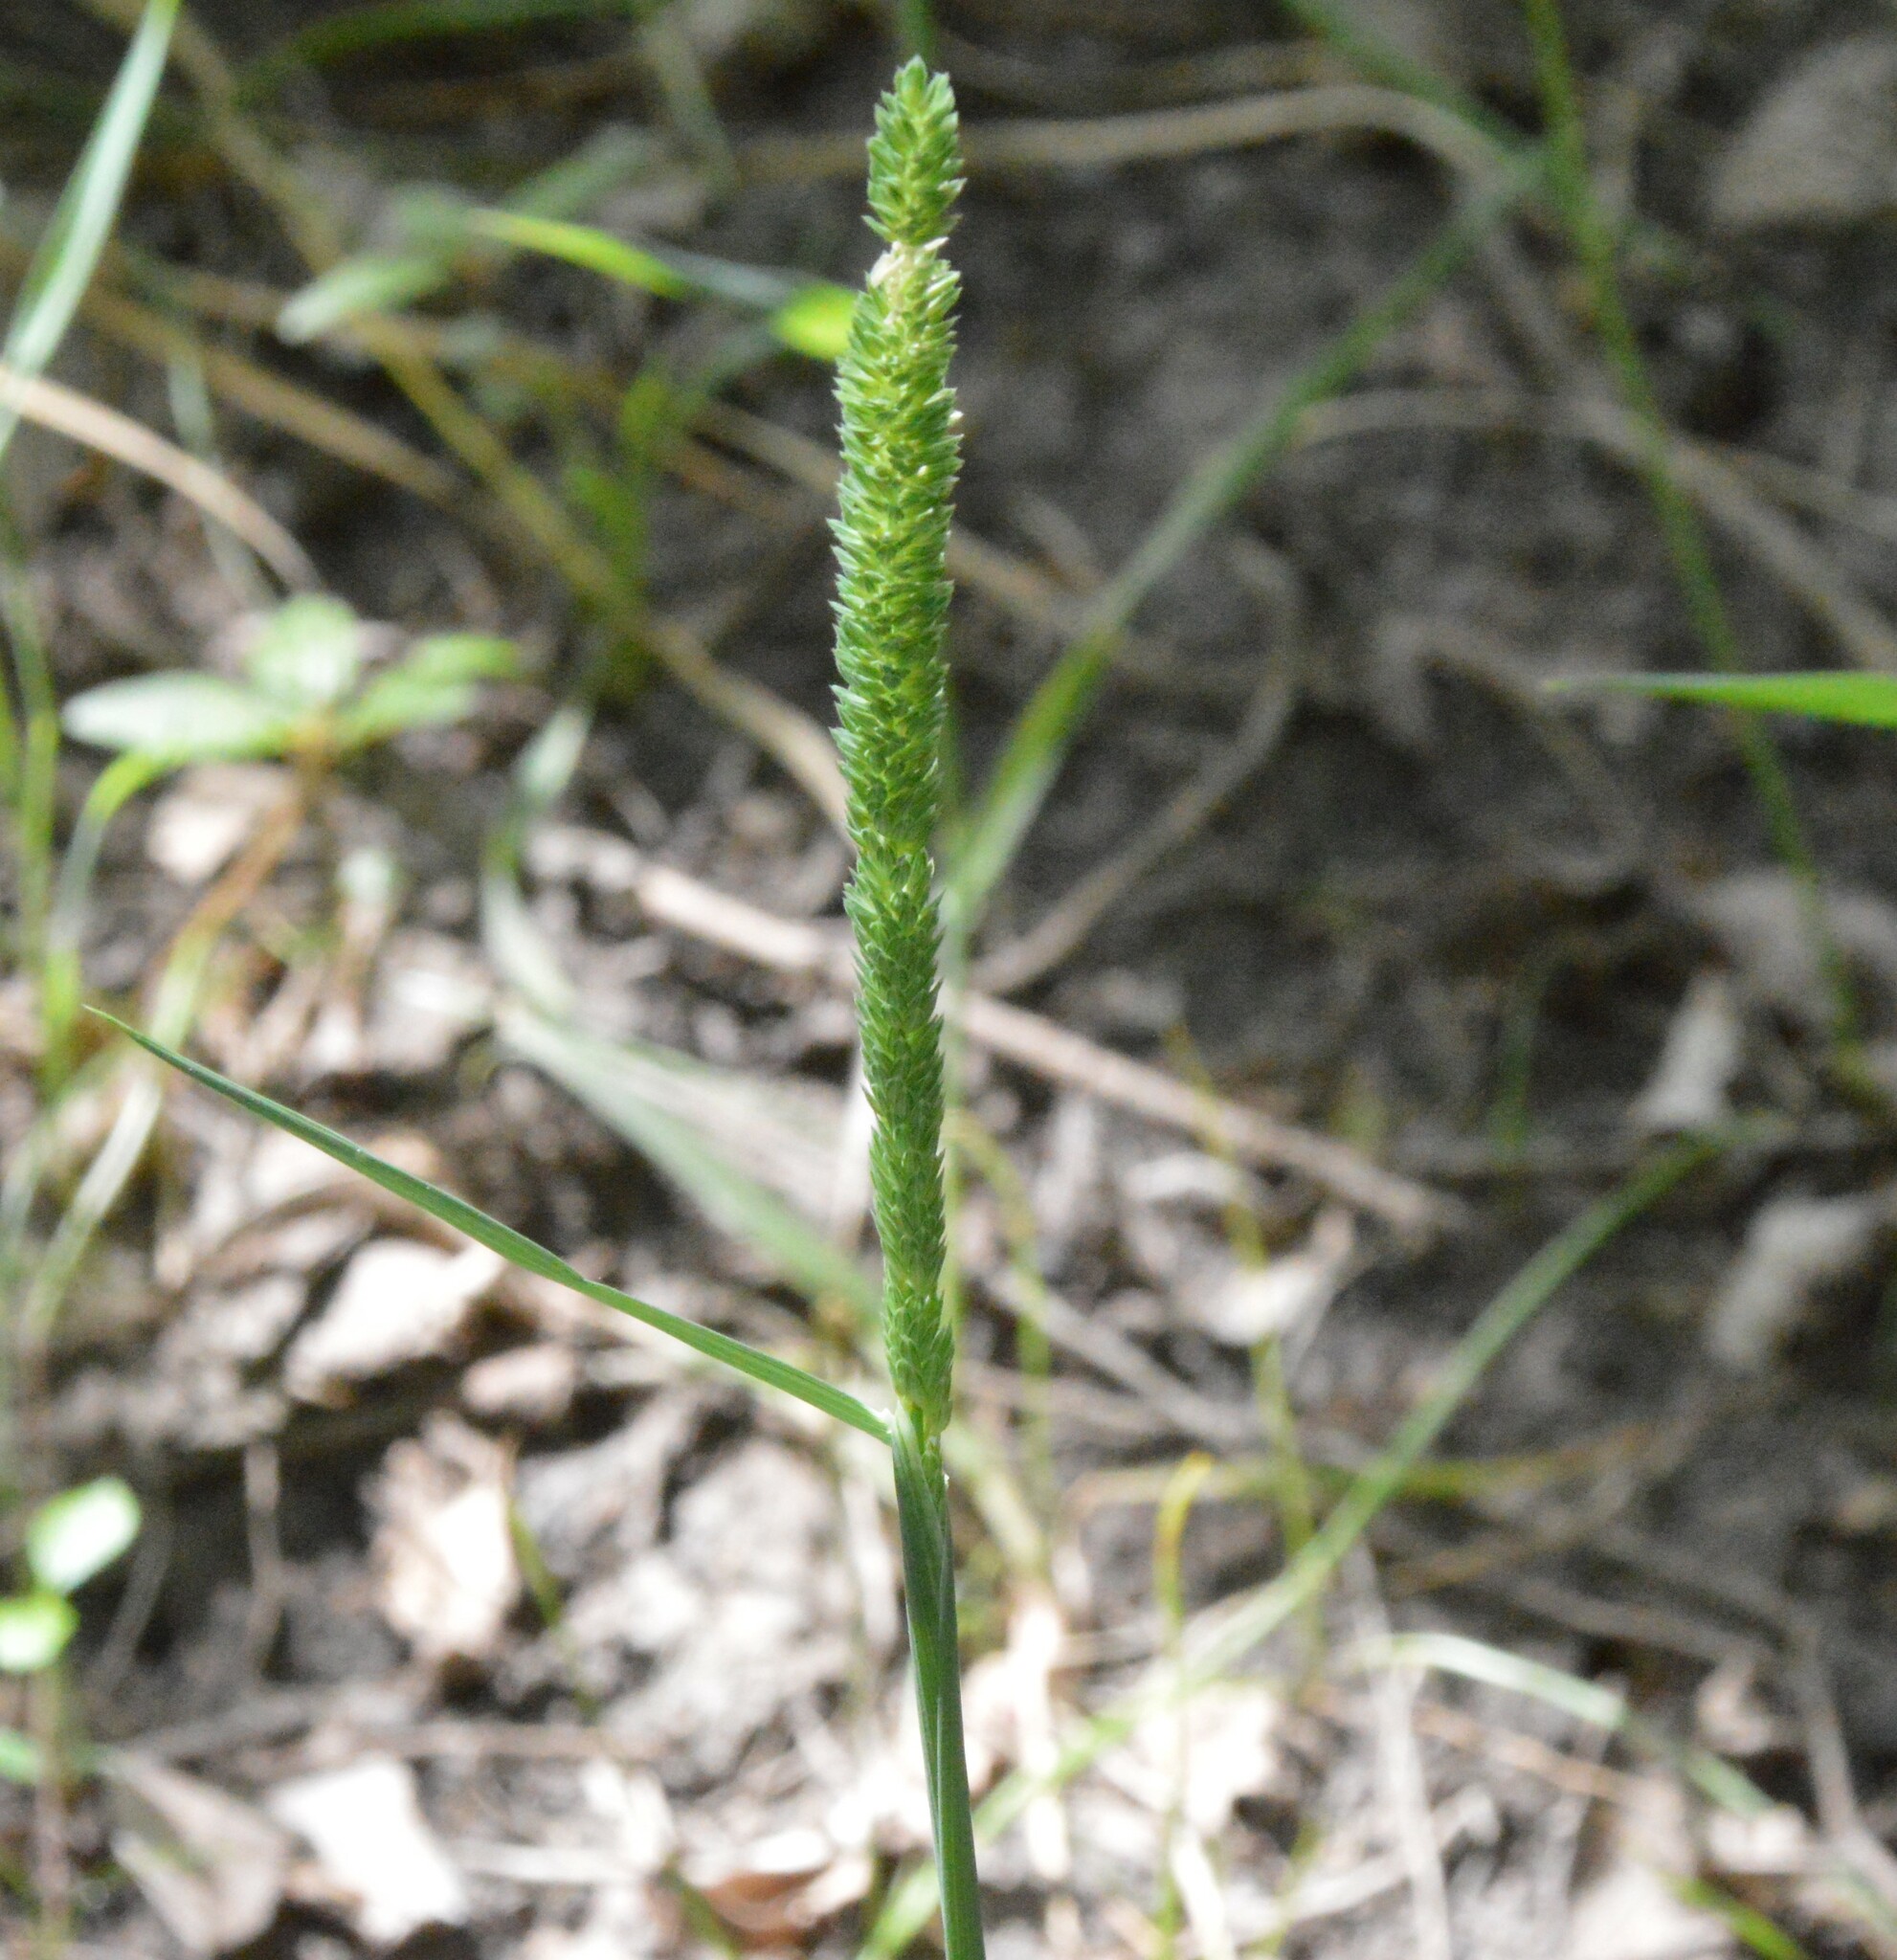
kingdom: Plantae
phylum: Tracheophyta
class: Liliopsida
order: Poales
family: Poaceae
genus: Phalaris
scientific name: Phalaris angusta
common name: Narrow canary grass
